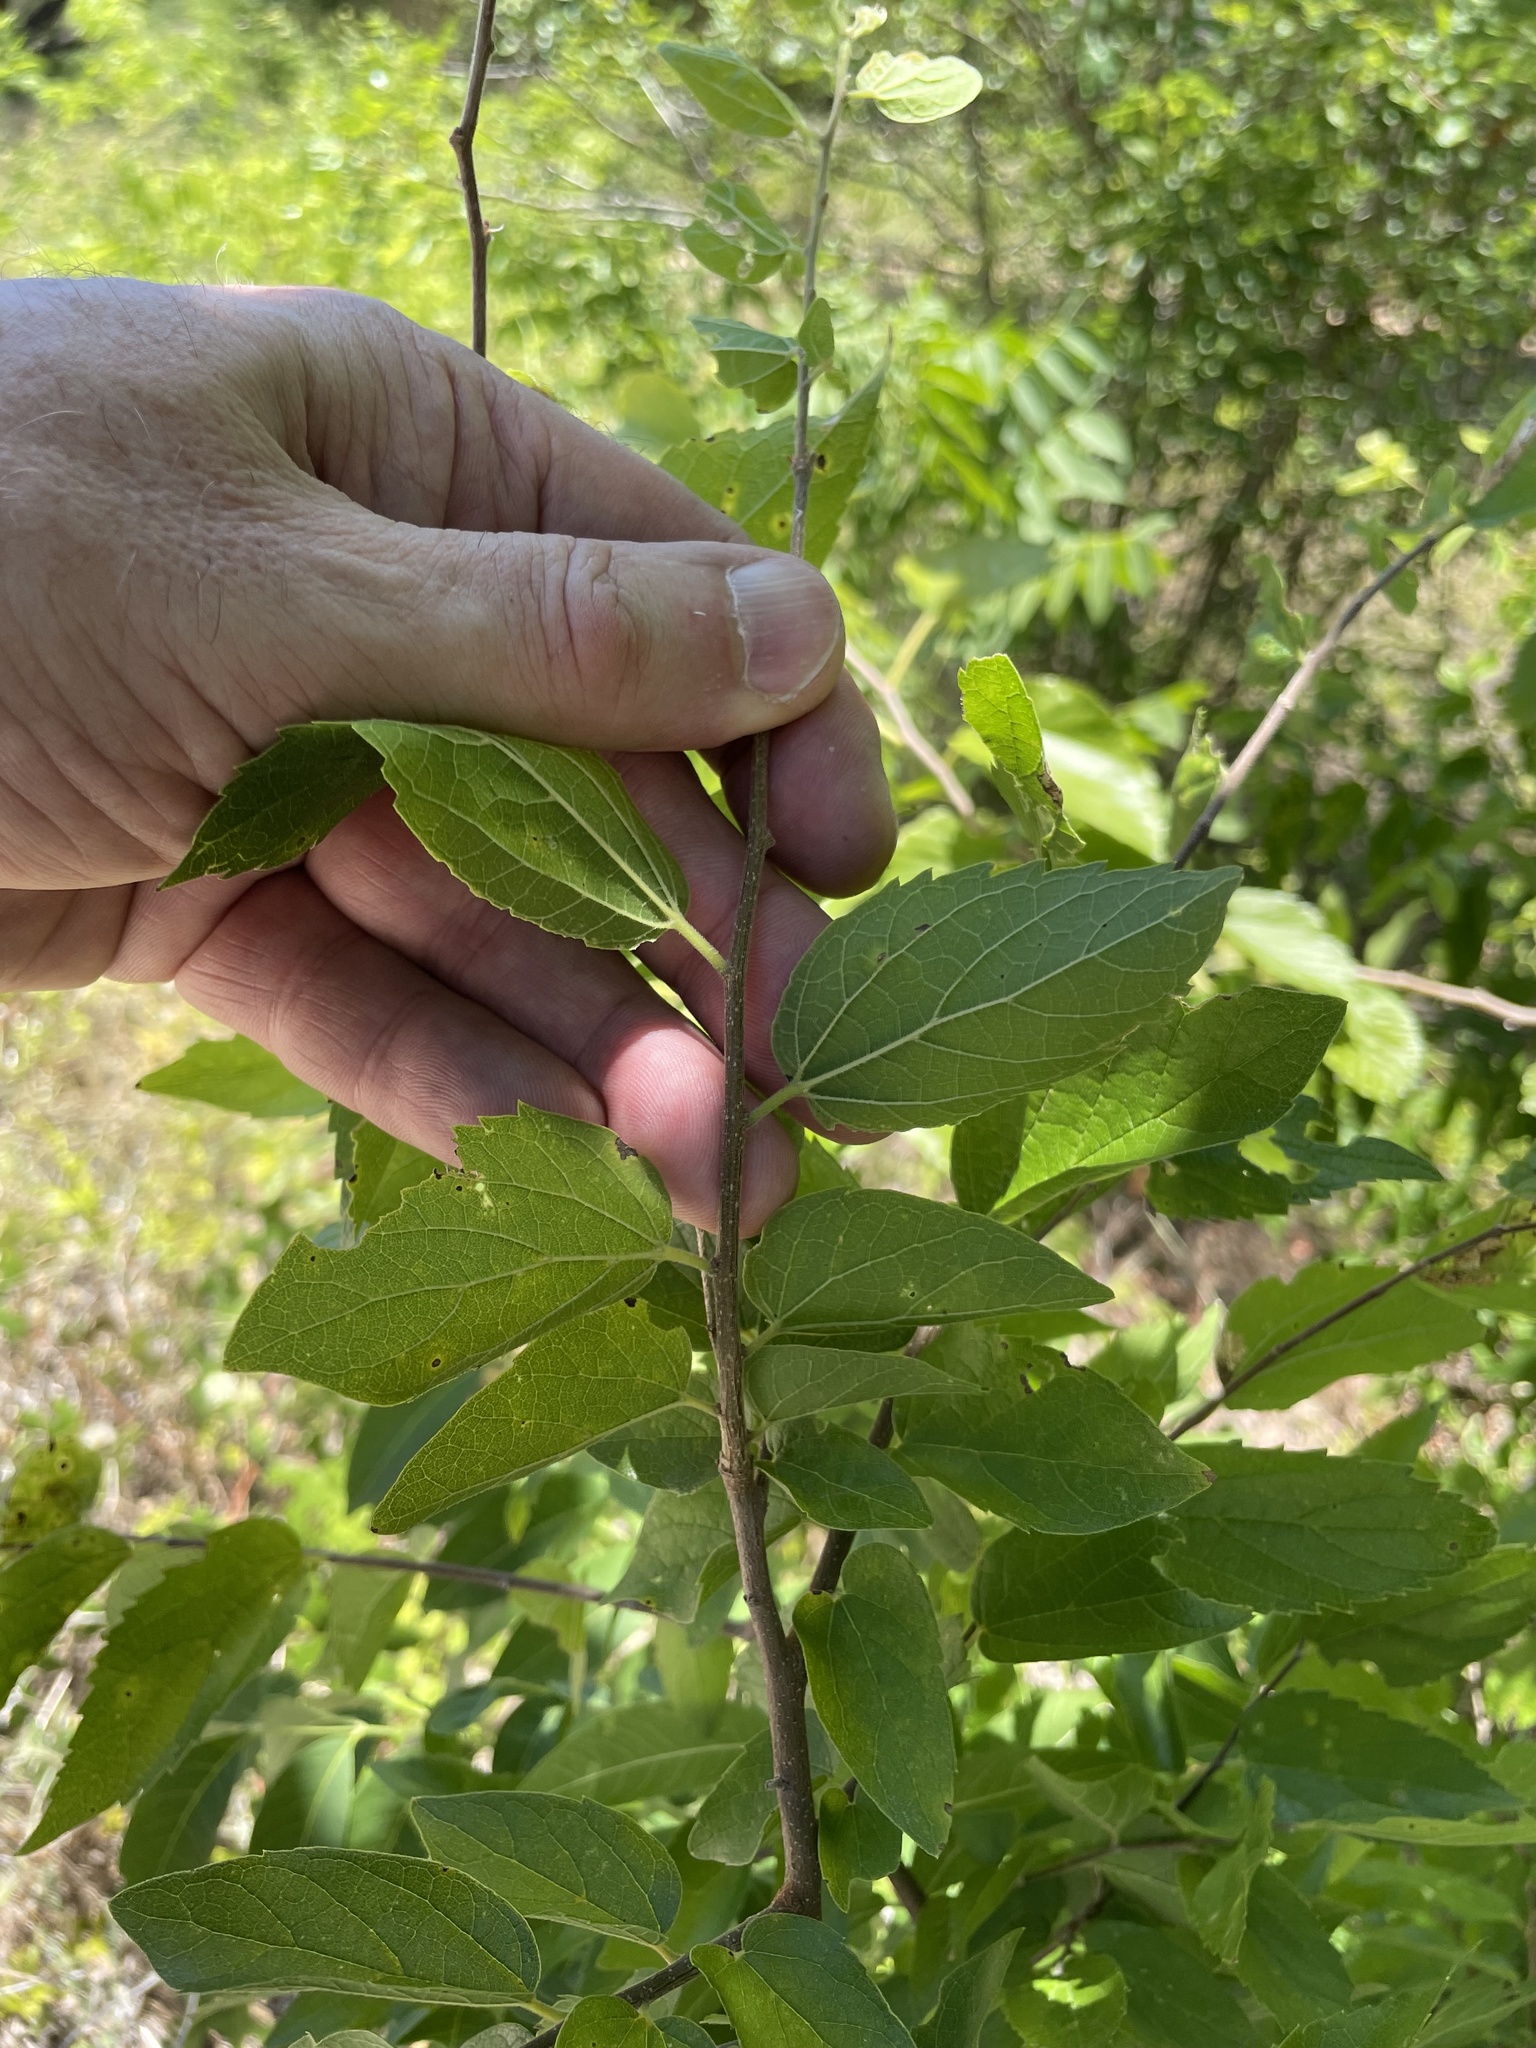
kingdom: Plantae
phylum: Tracheophyta
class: Magnoliopsida
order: Rosales
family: Cannabaceae
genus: Celtis
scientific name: Celtis laevigata
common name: Sugarberry
